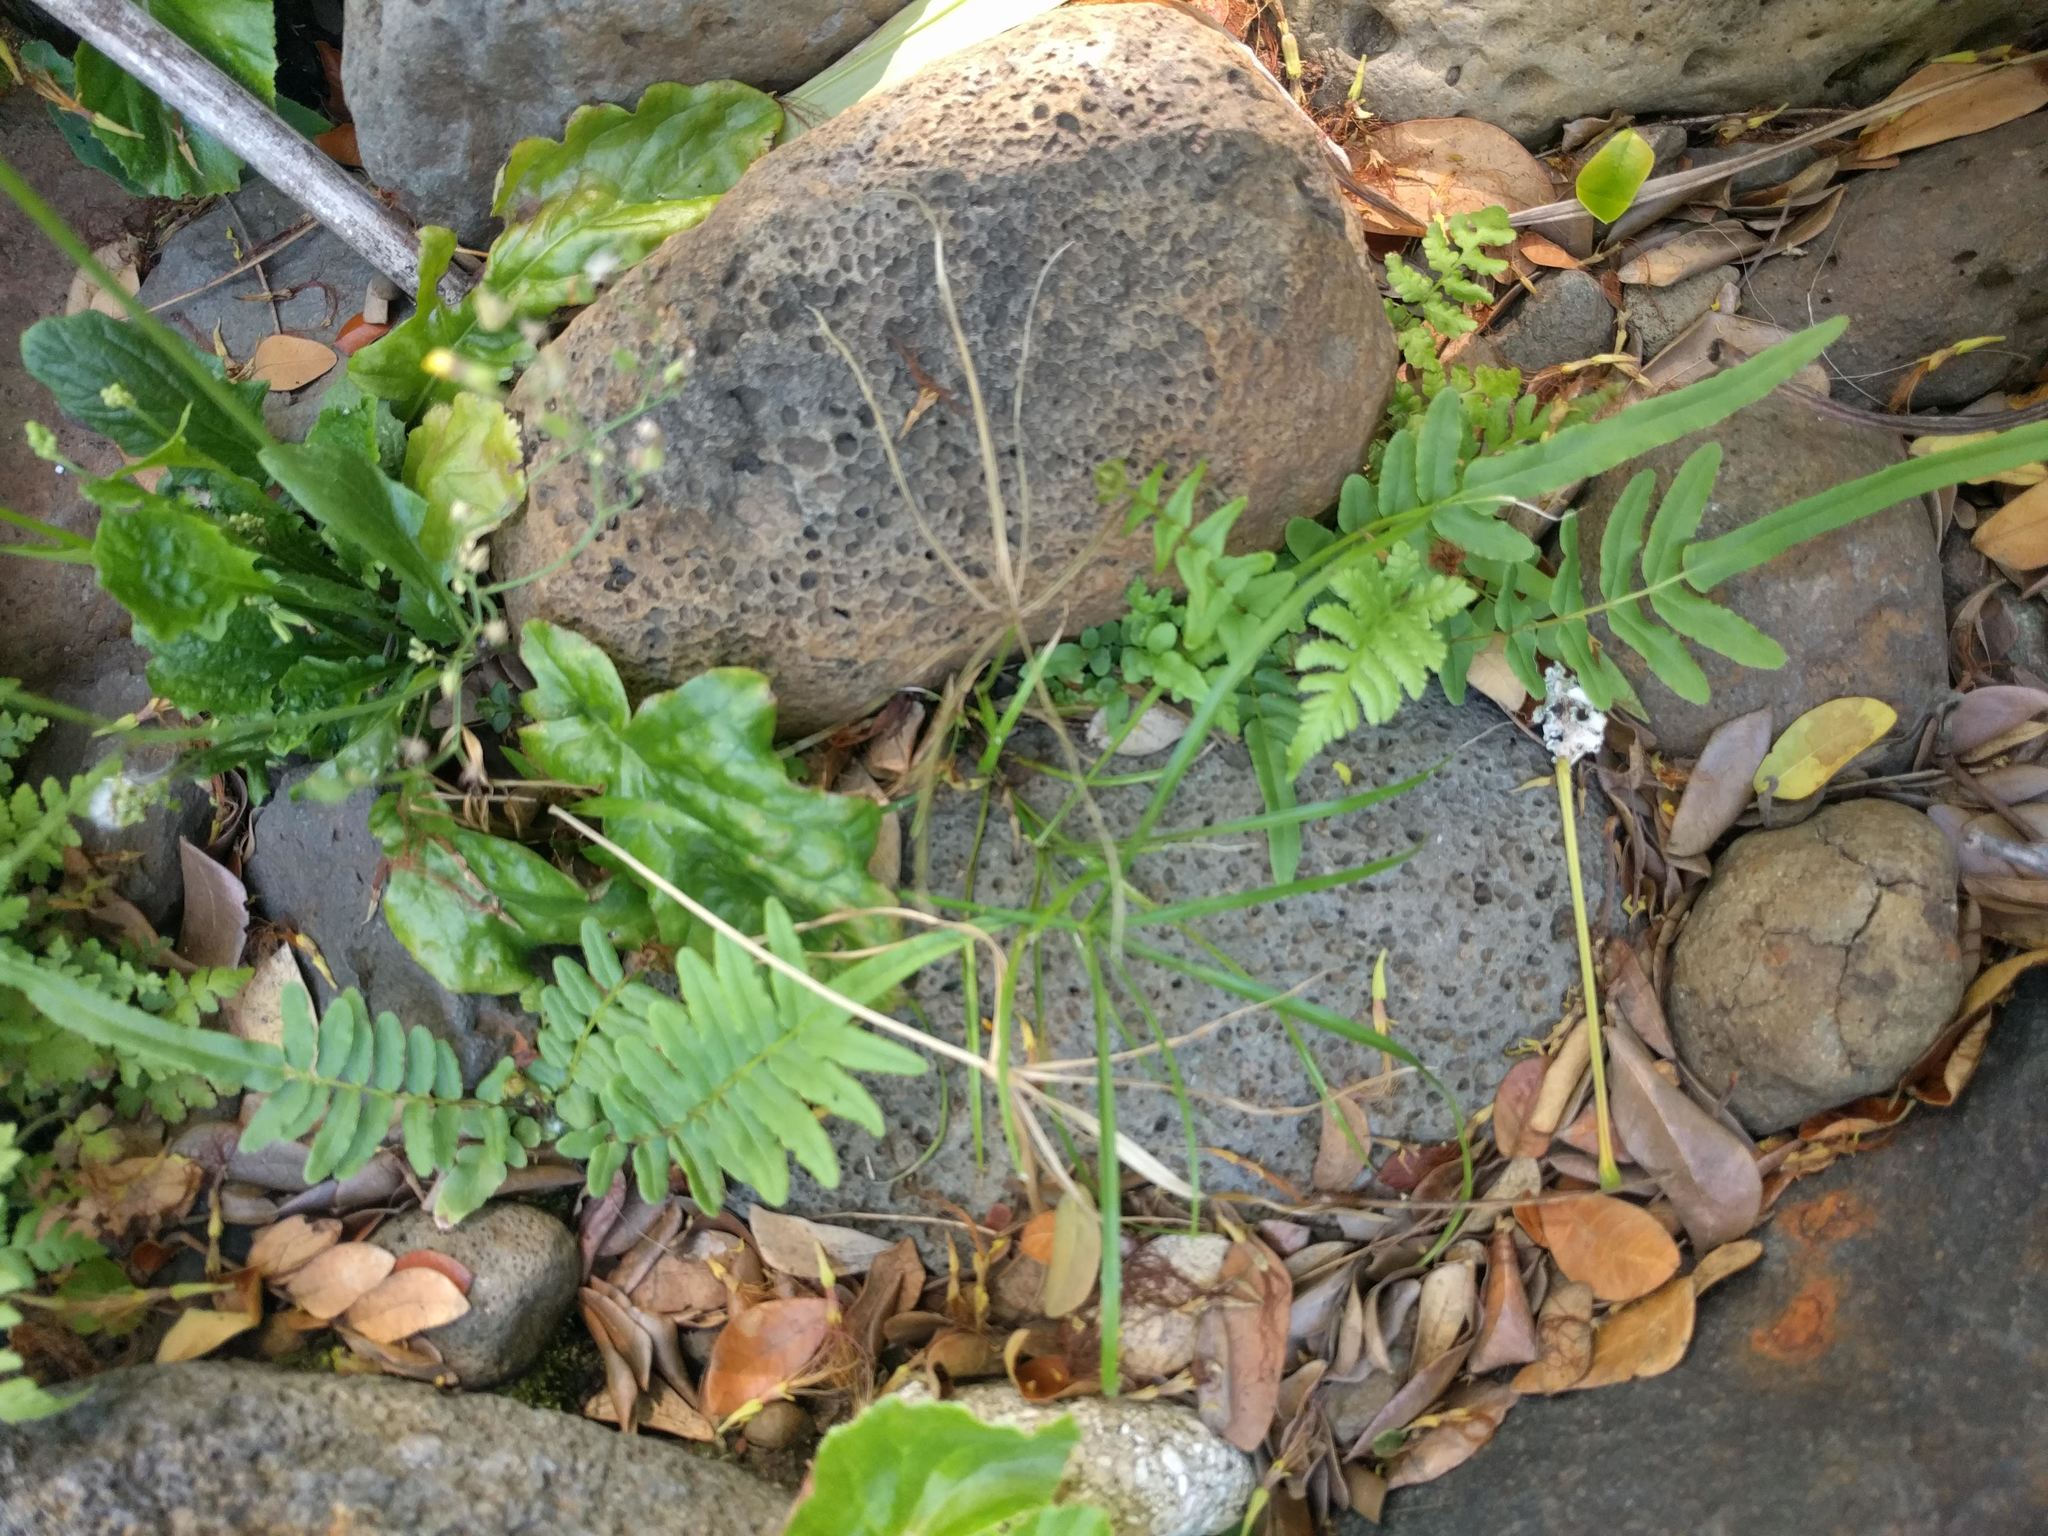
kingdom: Plantae
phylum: Tracheophyta
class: Polypodiopsida
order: Polypodiales
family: Pteridaceae
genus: Pteris
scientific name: Pteris vittata
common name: Ladder brake
